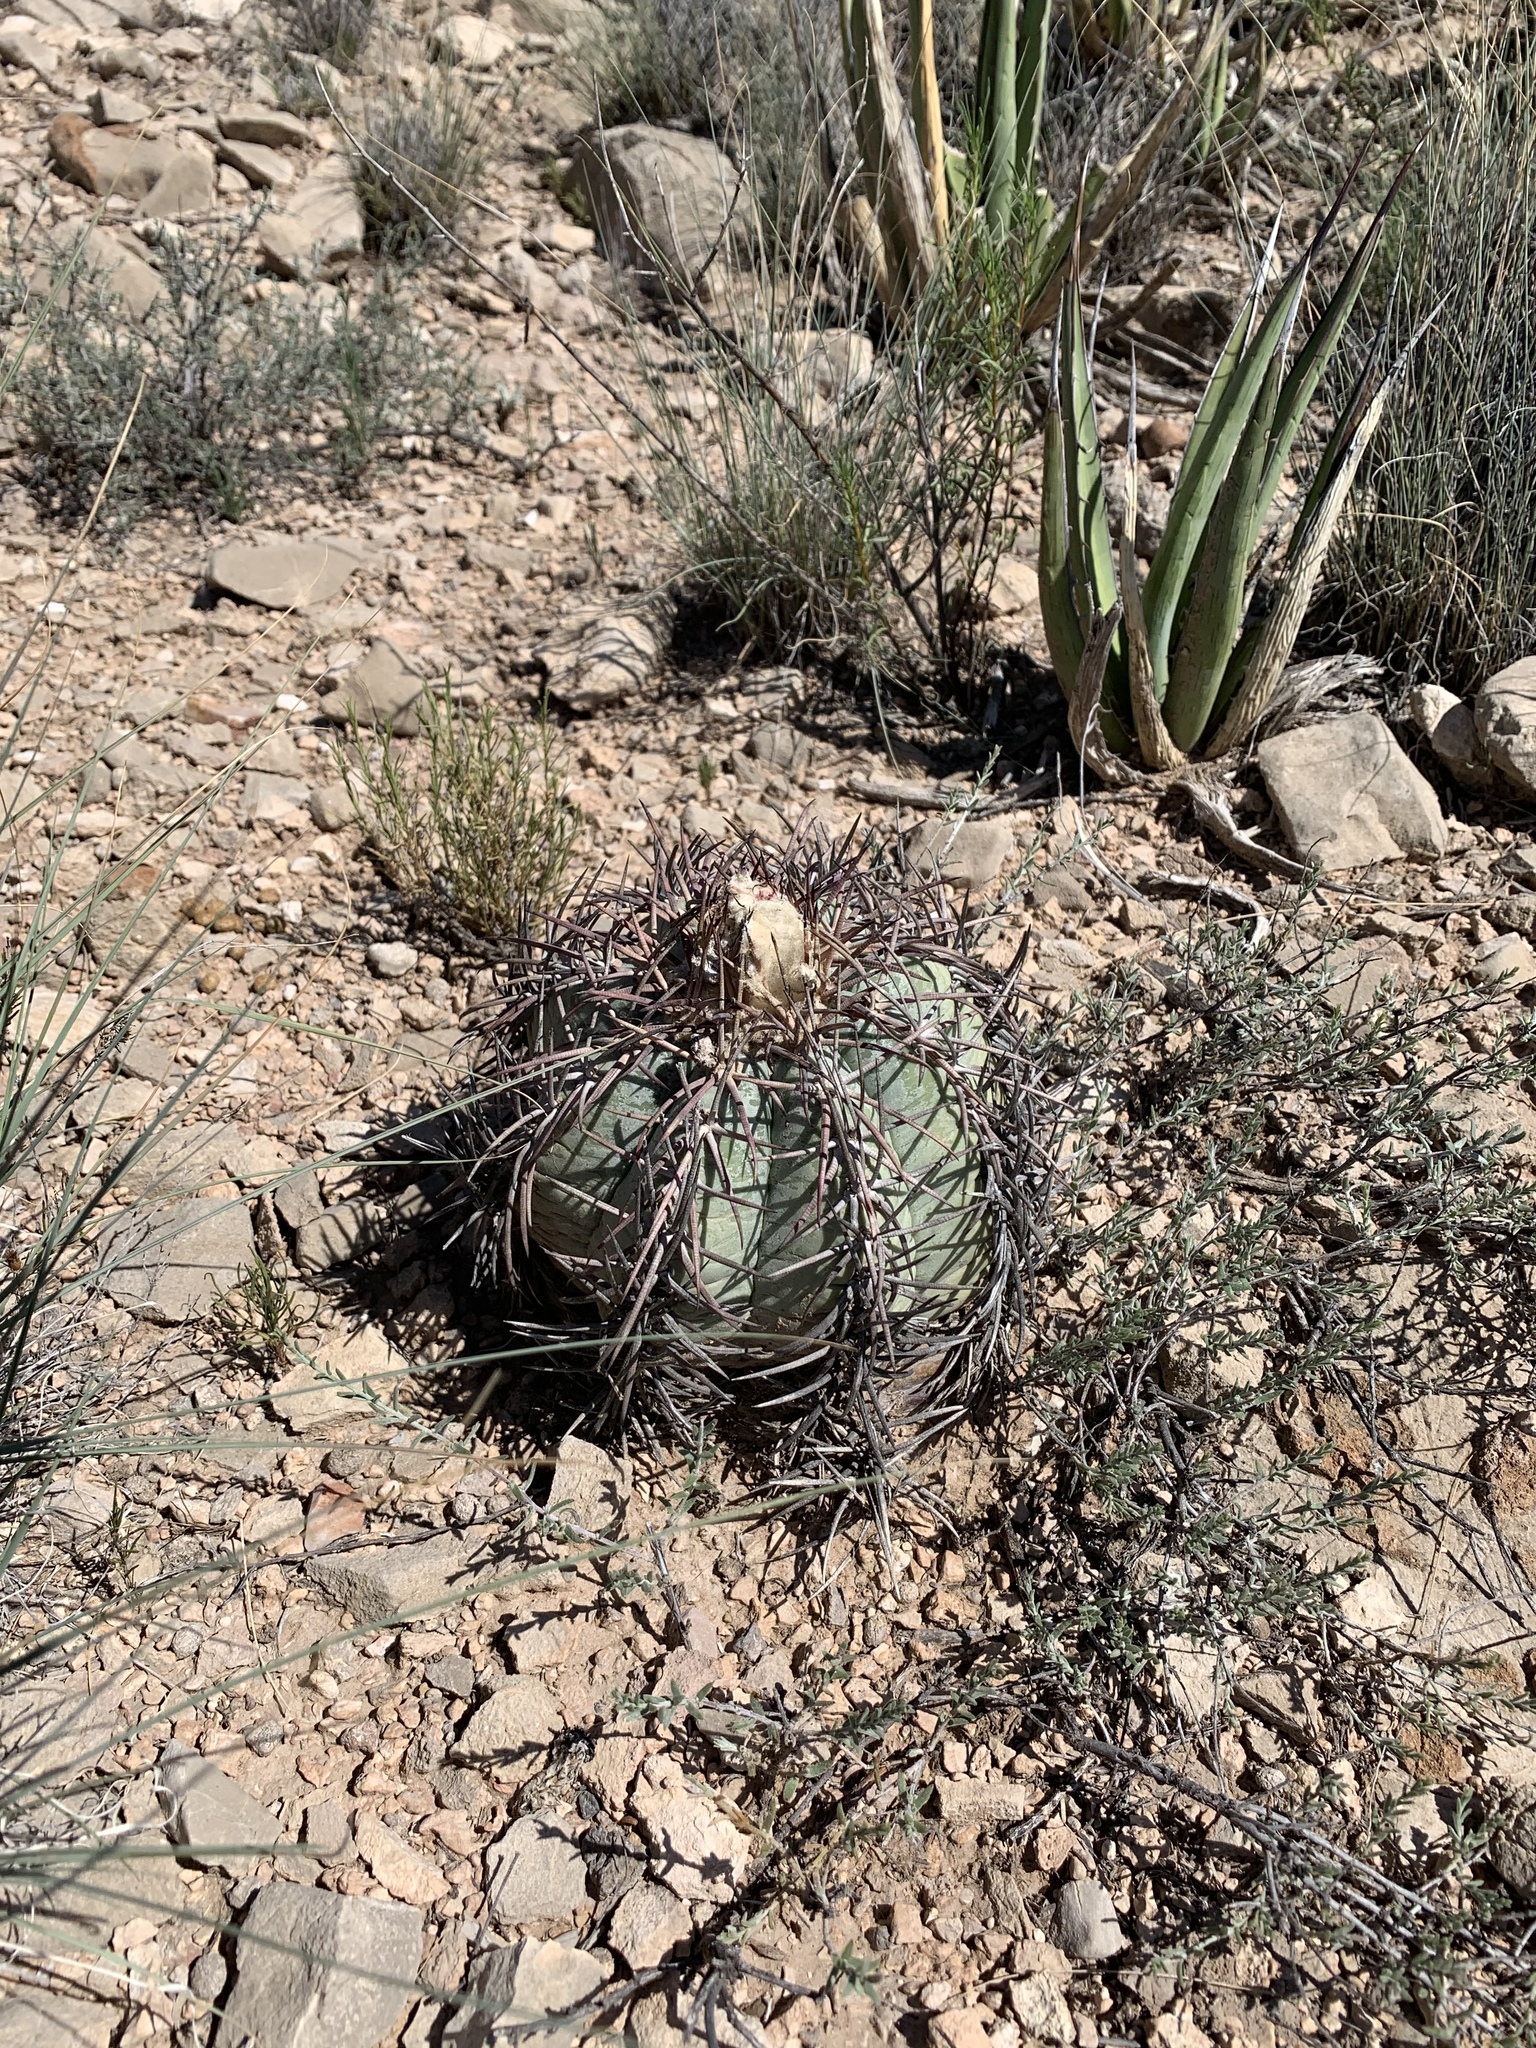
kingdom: Plantae
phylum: Tracheophyta
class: Magnoliopsida
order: Caryophyllales
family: Cactaceae
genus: Echinocactus
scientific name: Echinocactus horizonthalonius
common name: Devilshead
